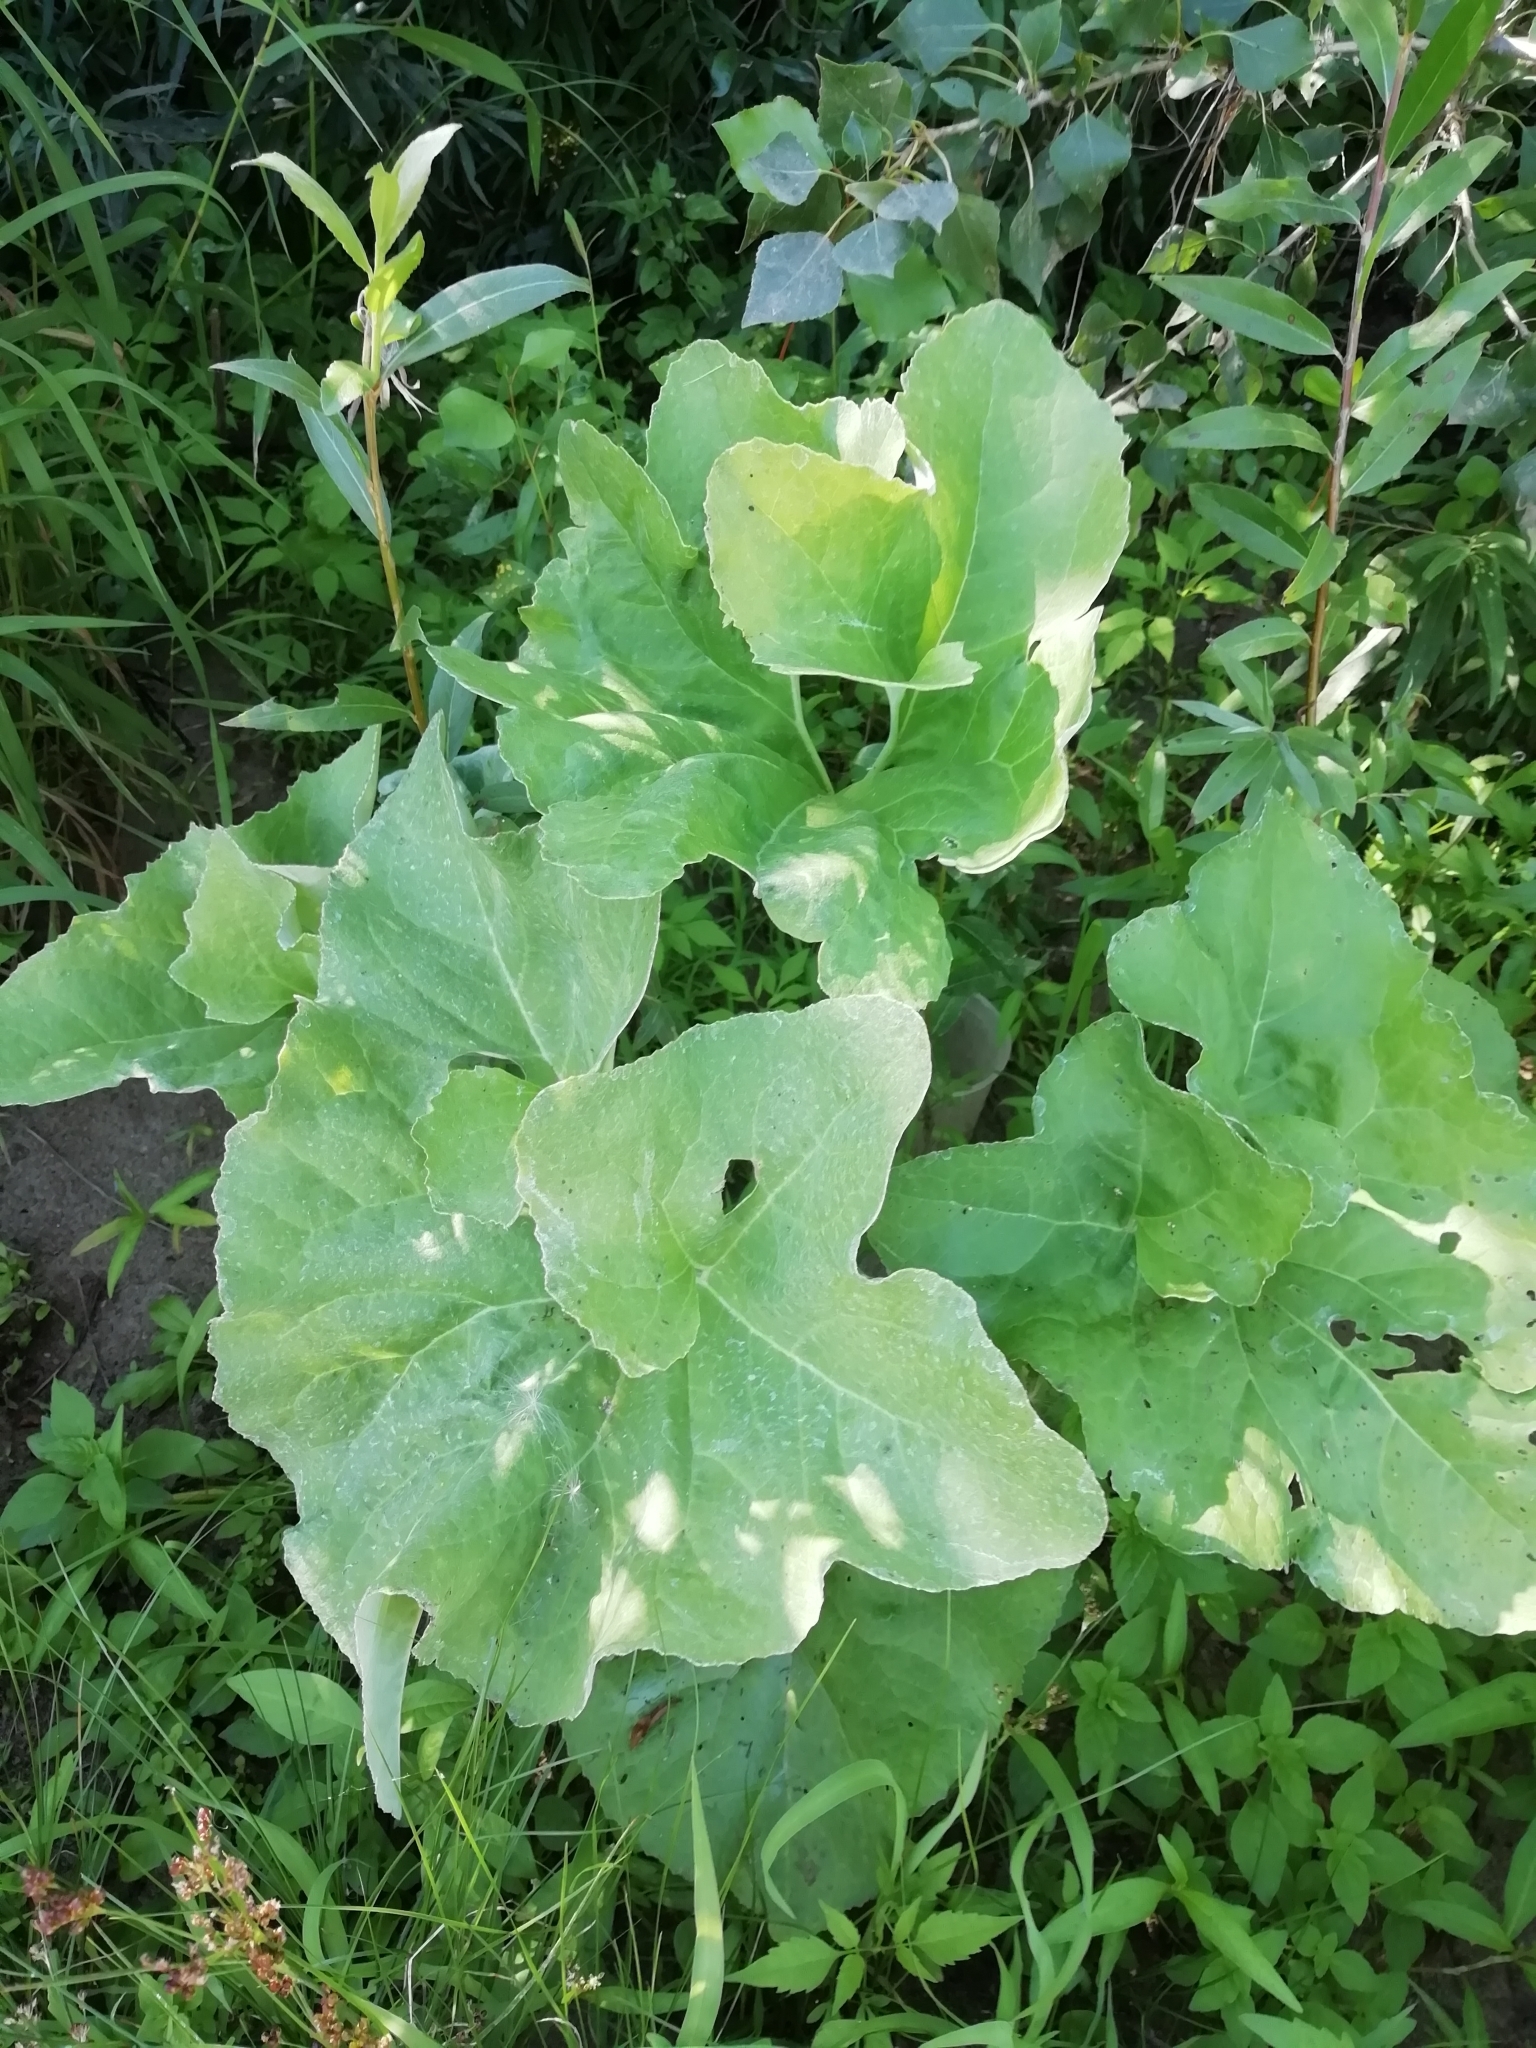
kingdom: Plantae
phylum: Tracheophyta
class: Magnoliopsida
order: Asterales
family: Asteraceae
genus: Petasites
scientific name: Petasites spurius
